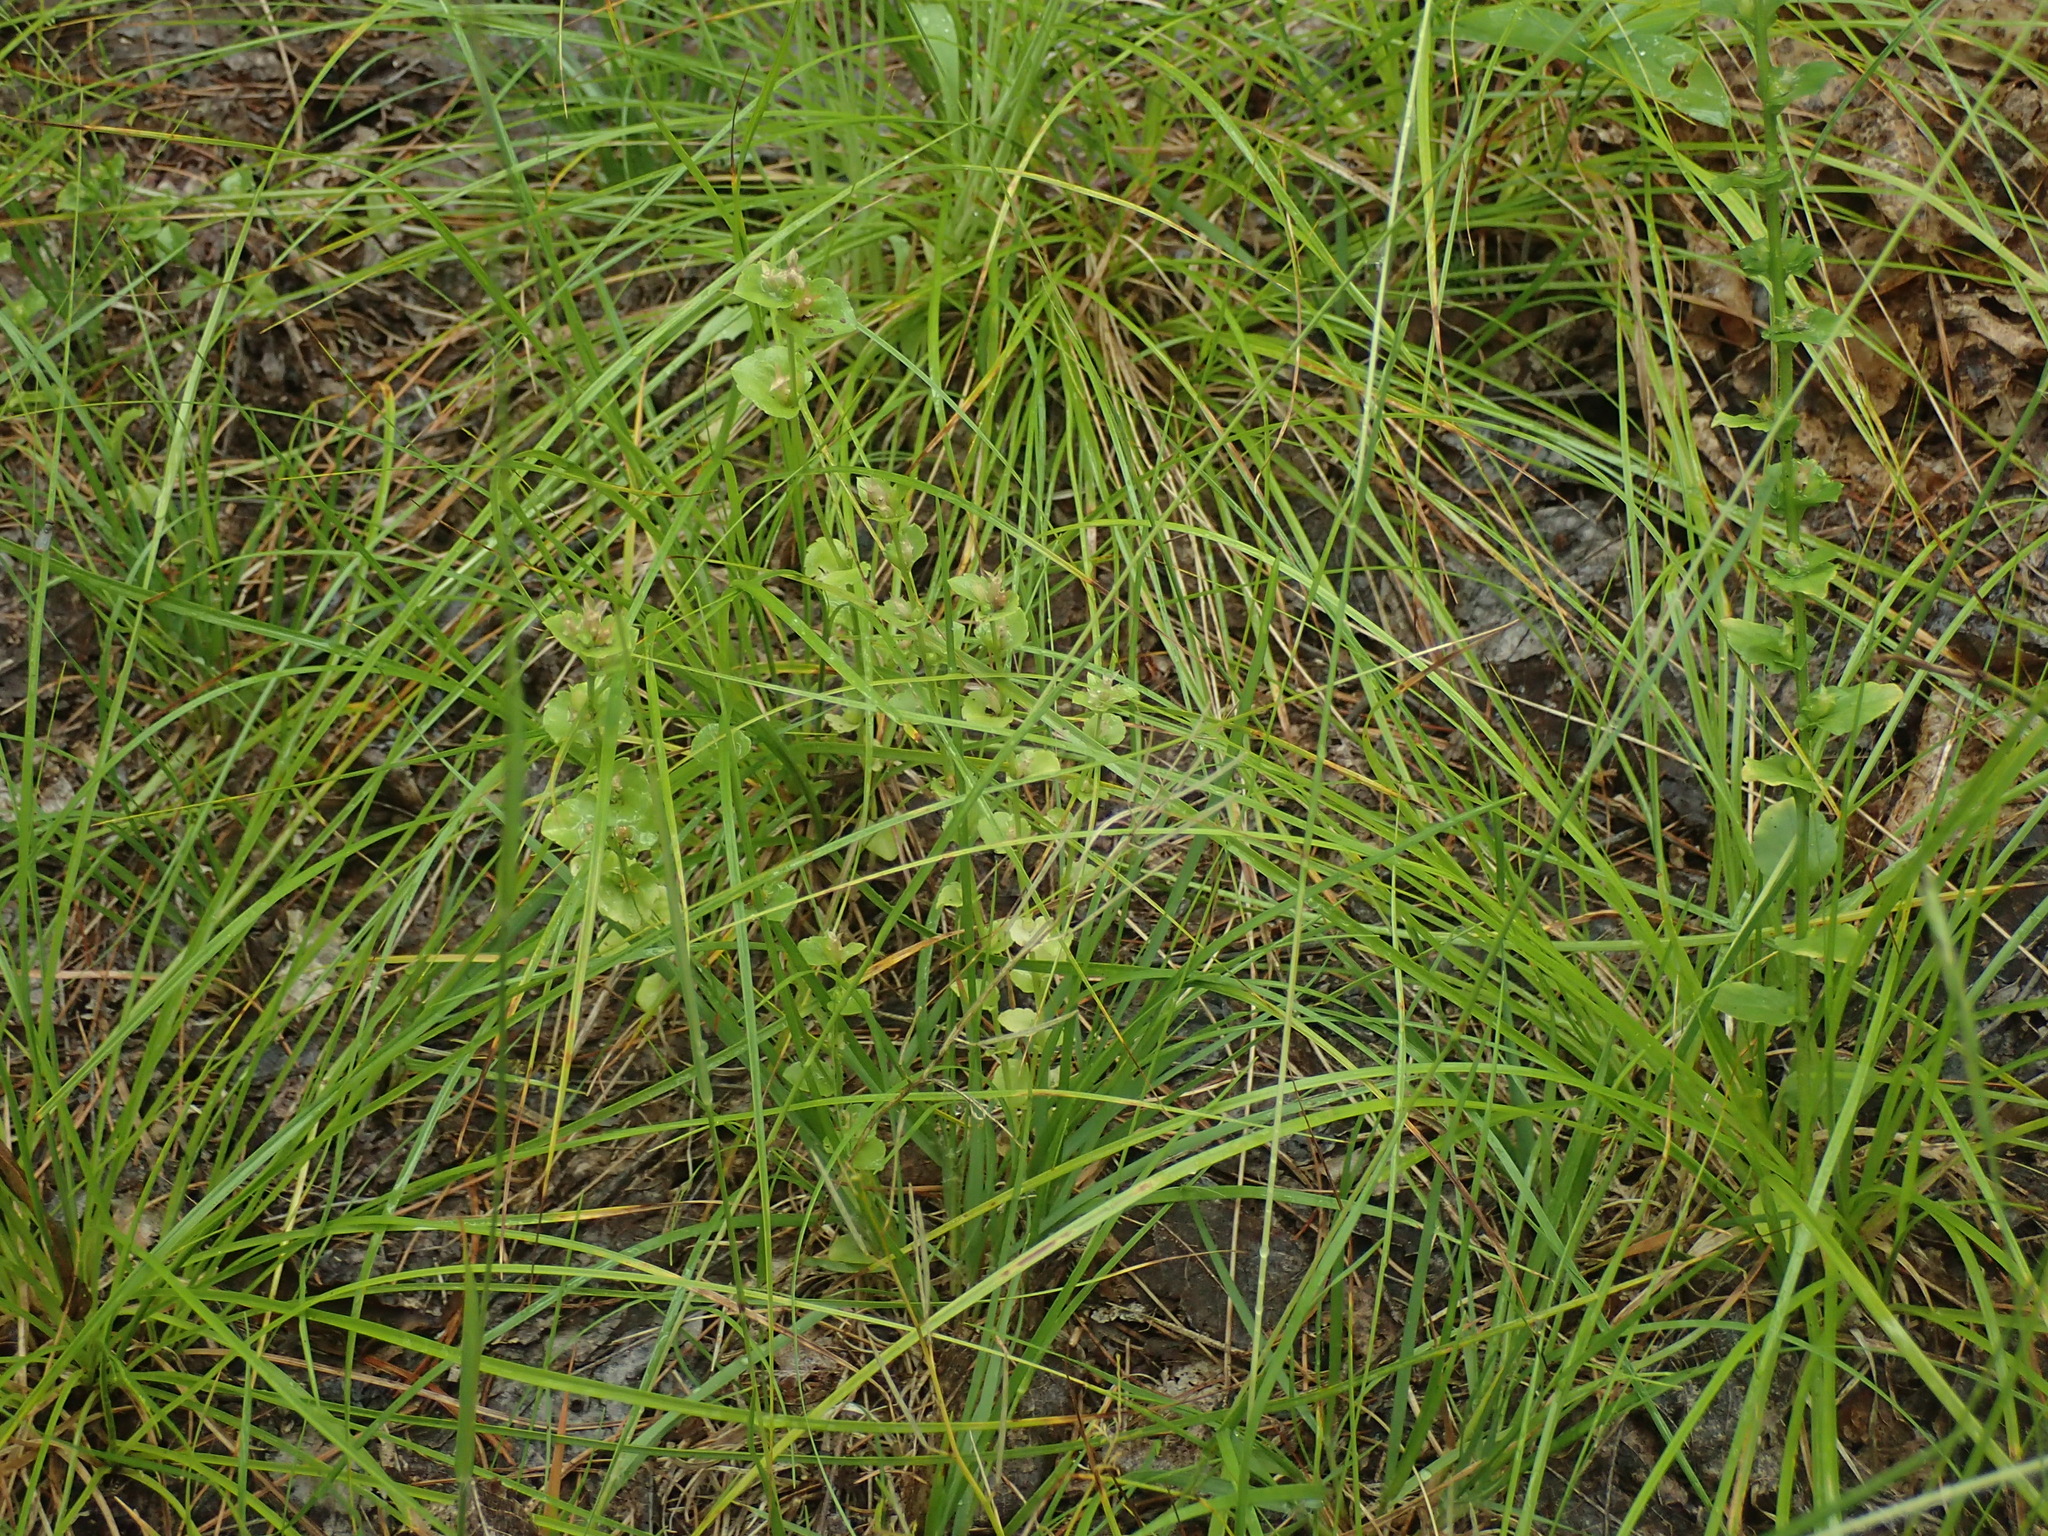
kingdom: Plantae
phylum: Tracheophyta
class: Magnoliopsida
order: Asterales
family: Campanulaceae
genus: Triodanis
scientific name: Triodanis perfoliata
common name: Clasping venus' looking-glass
